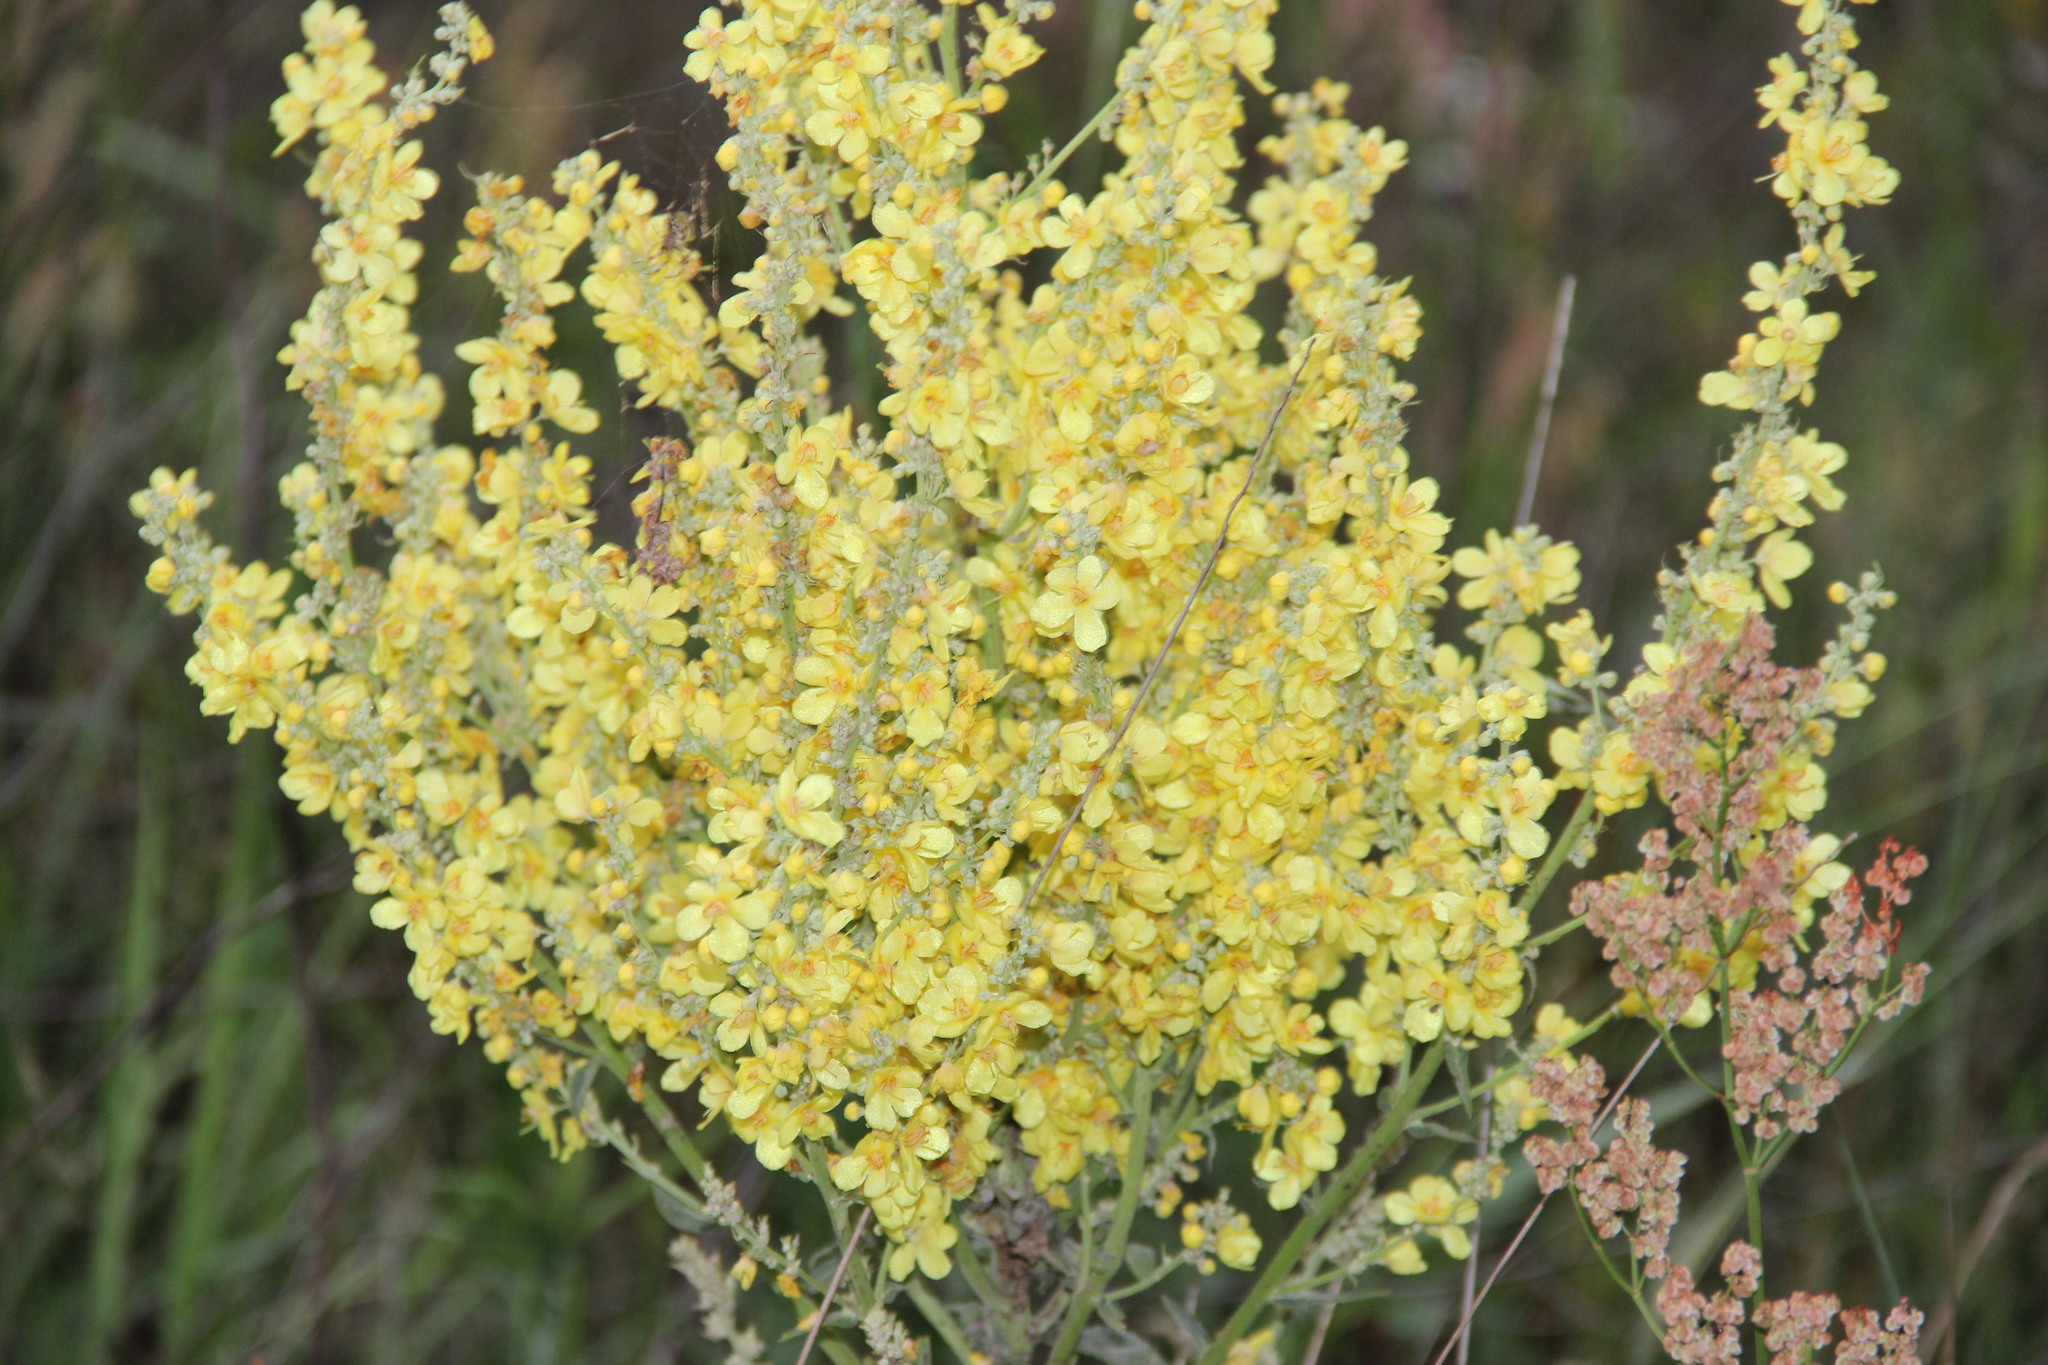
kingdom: Plantae
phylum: Tracheophyta
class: Magnoliopsida
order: Lamiales
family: Scrophulariaceae
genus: Verbascum
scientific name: Verbascum lychnitis
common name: White mullein
